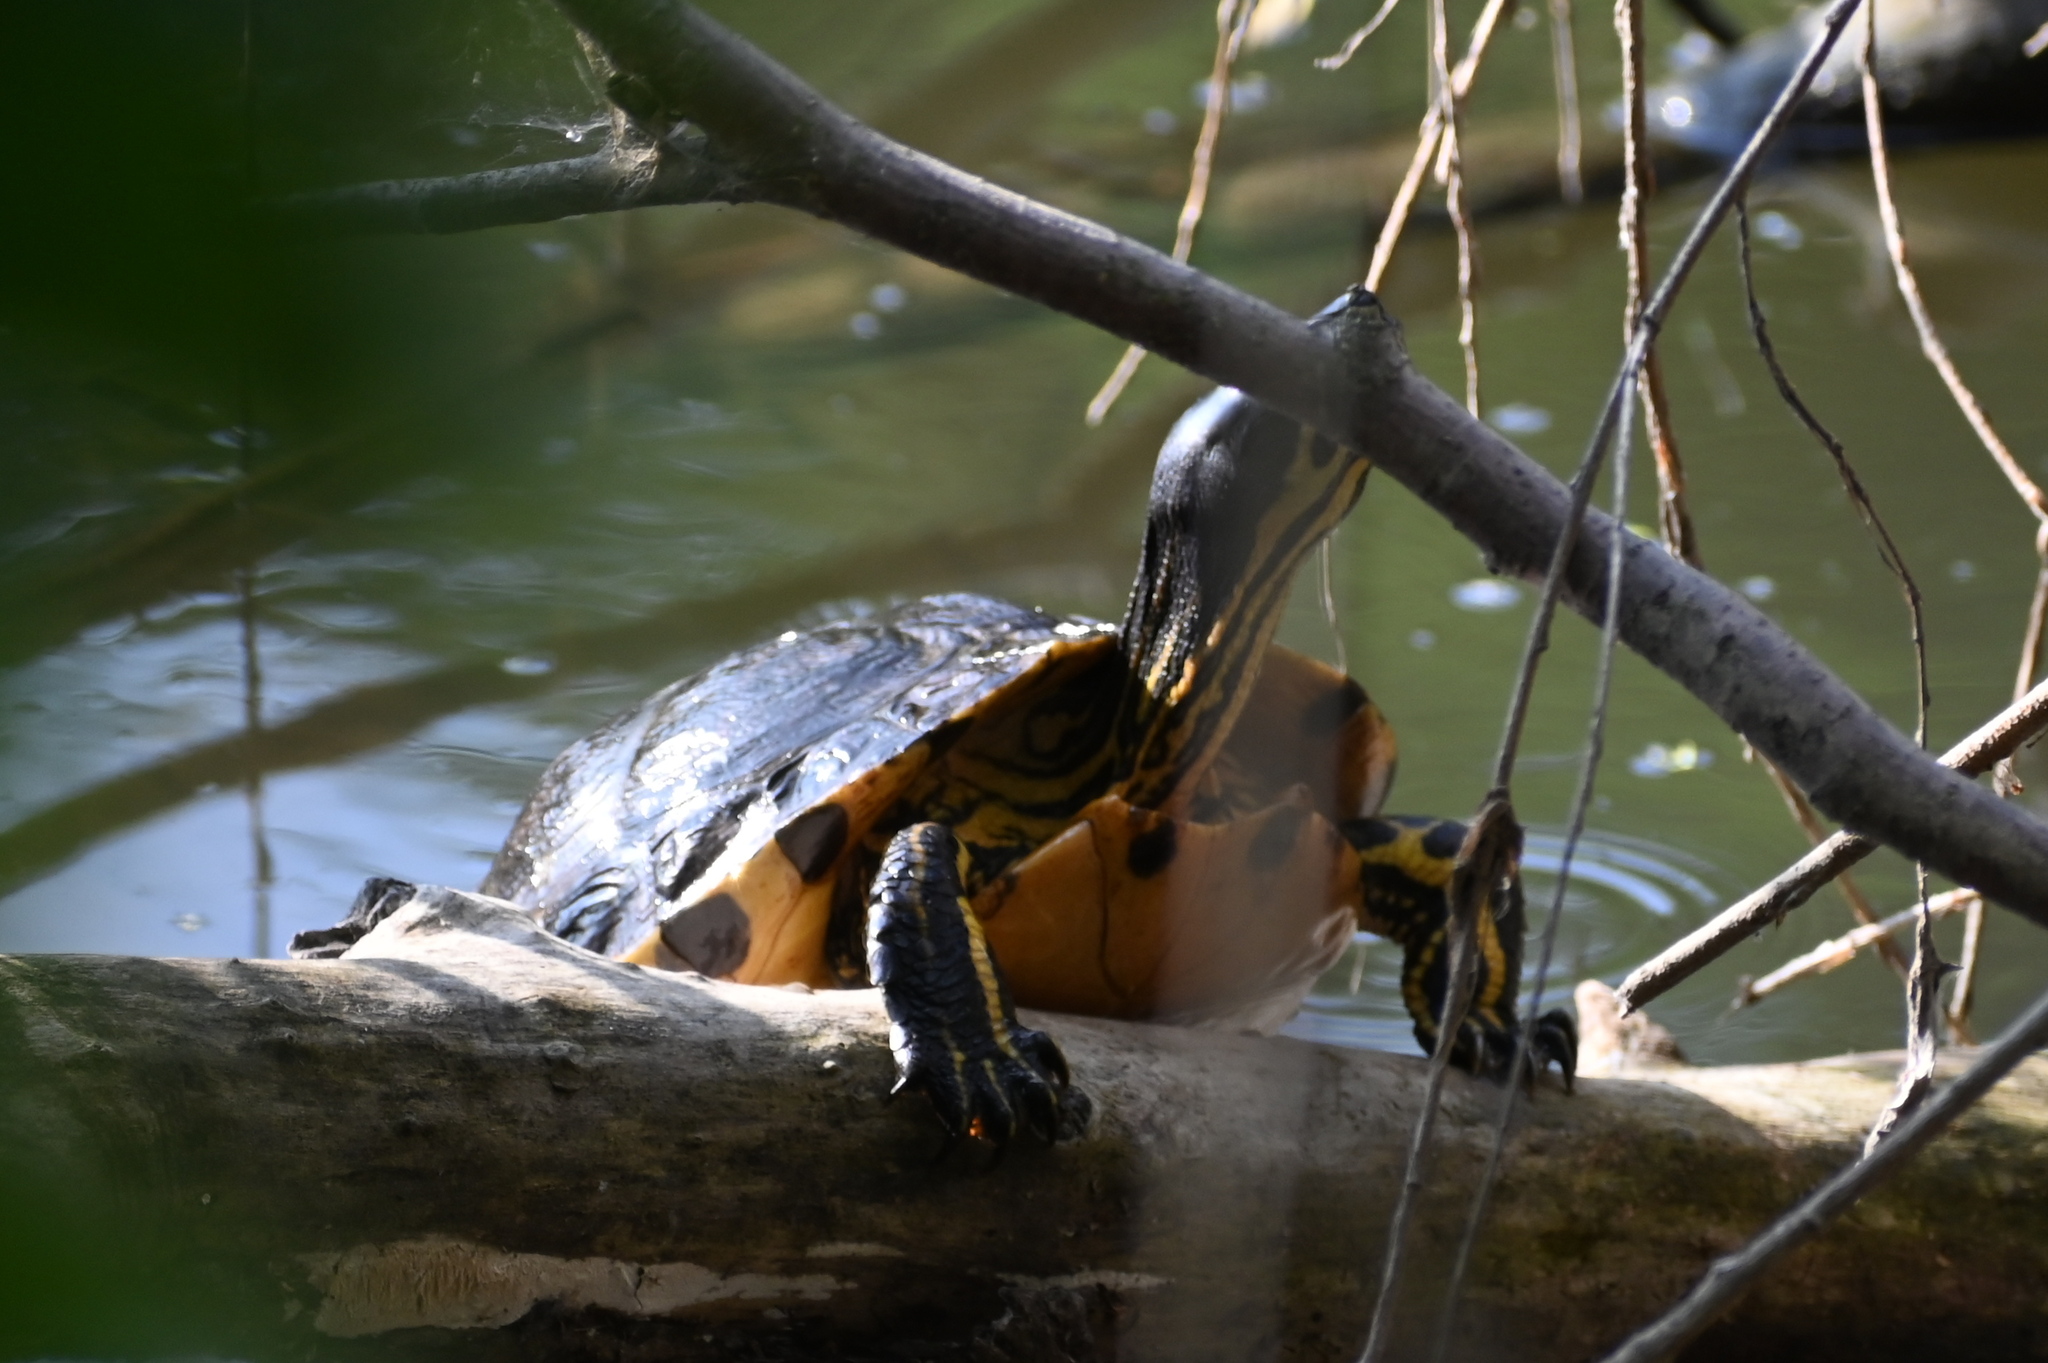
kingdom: Animalia
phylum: Chordata
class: Testudines
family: Emydidae
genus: Trachemys
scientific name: Trachemys scripta
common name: Slider
